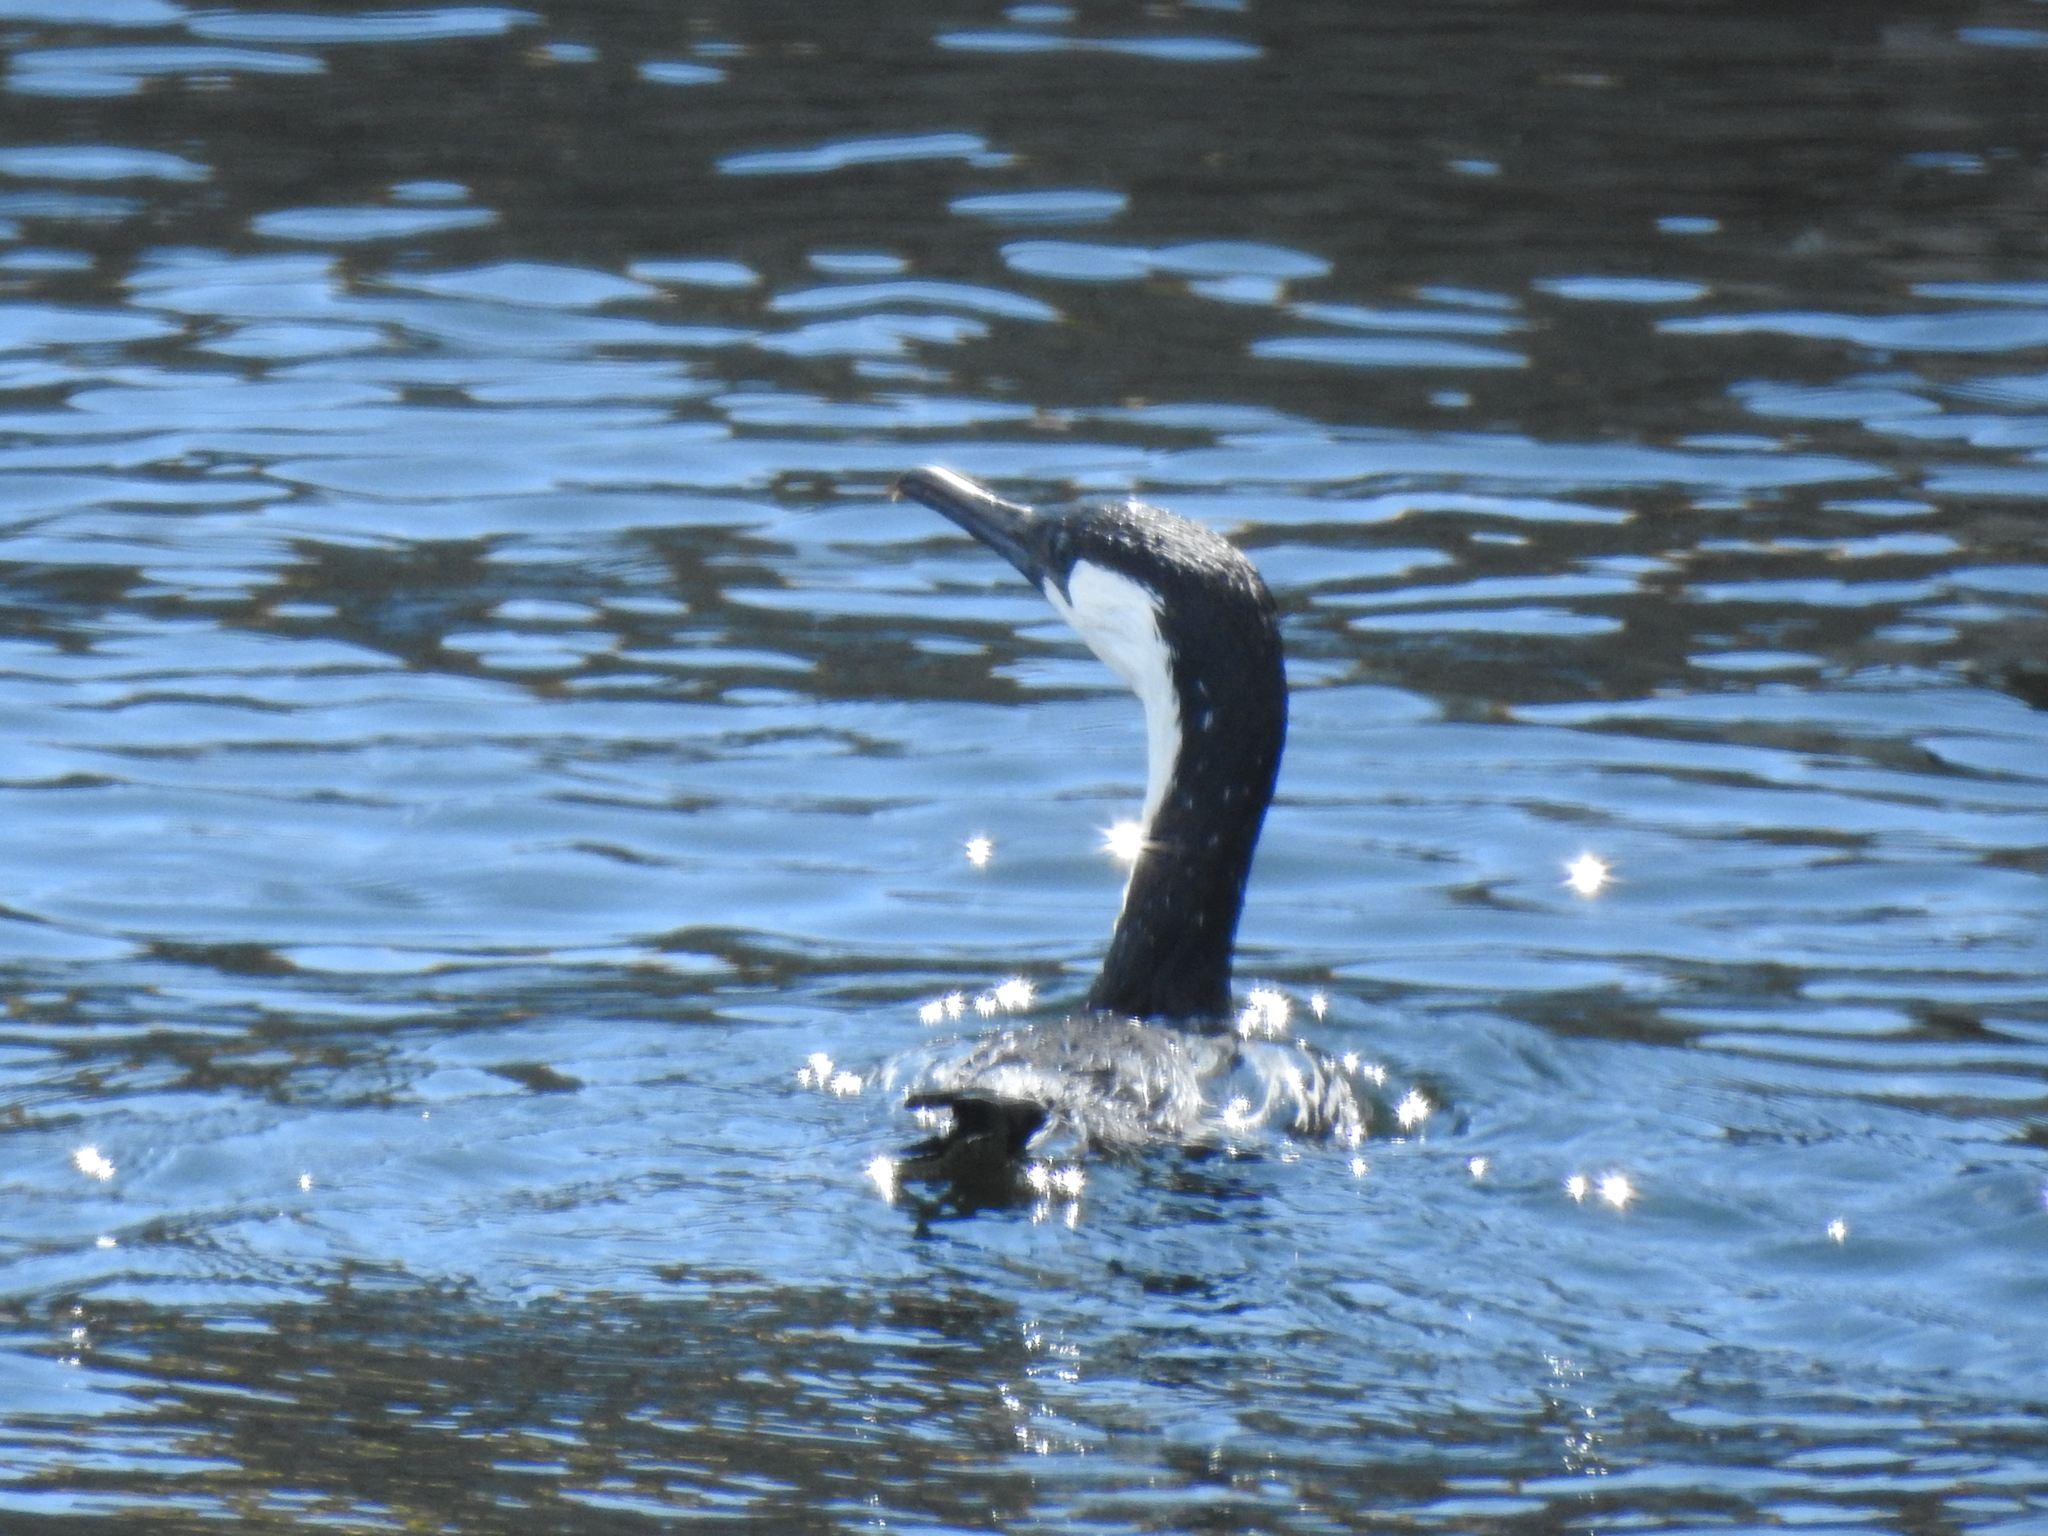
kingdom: Animalia
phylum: Chordata
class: Aves
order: Suliformes
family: Phalacrocoracidae
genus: Phalacrocorax
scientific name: Phalacrocorax fuscescens
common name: Black-faced cormorant
